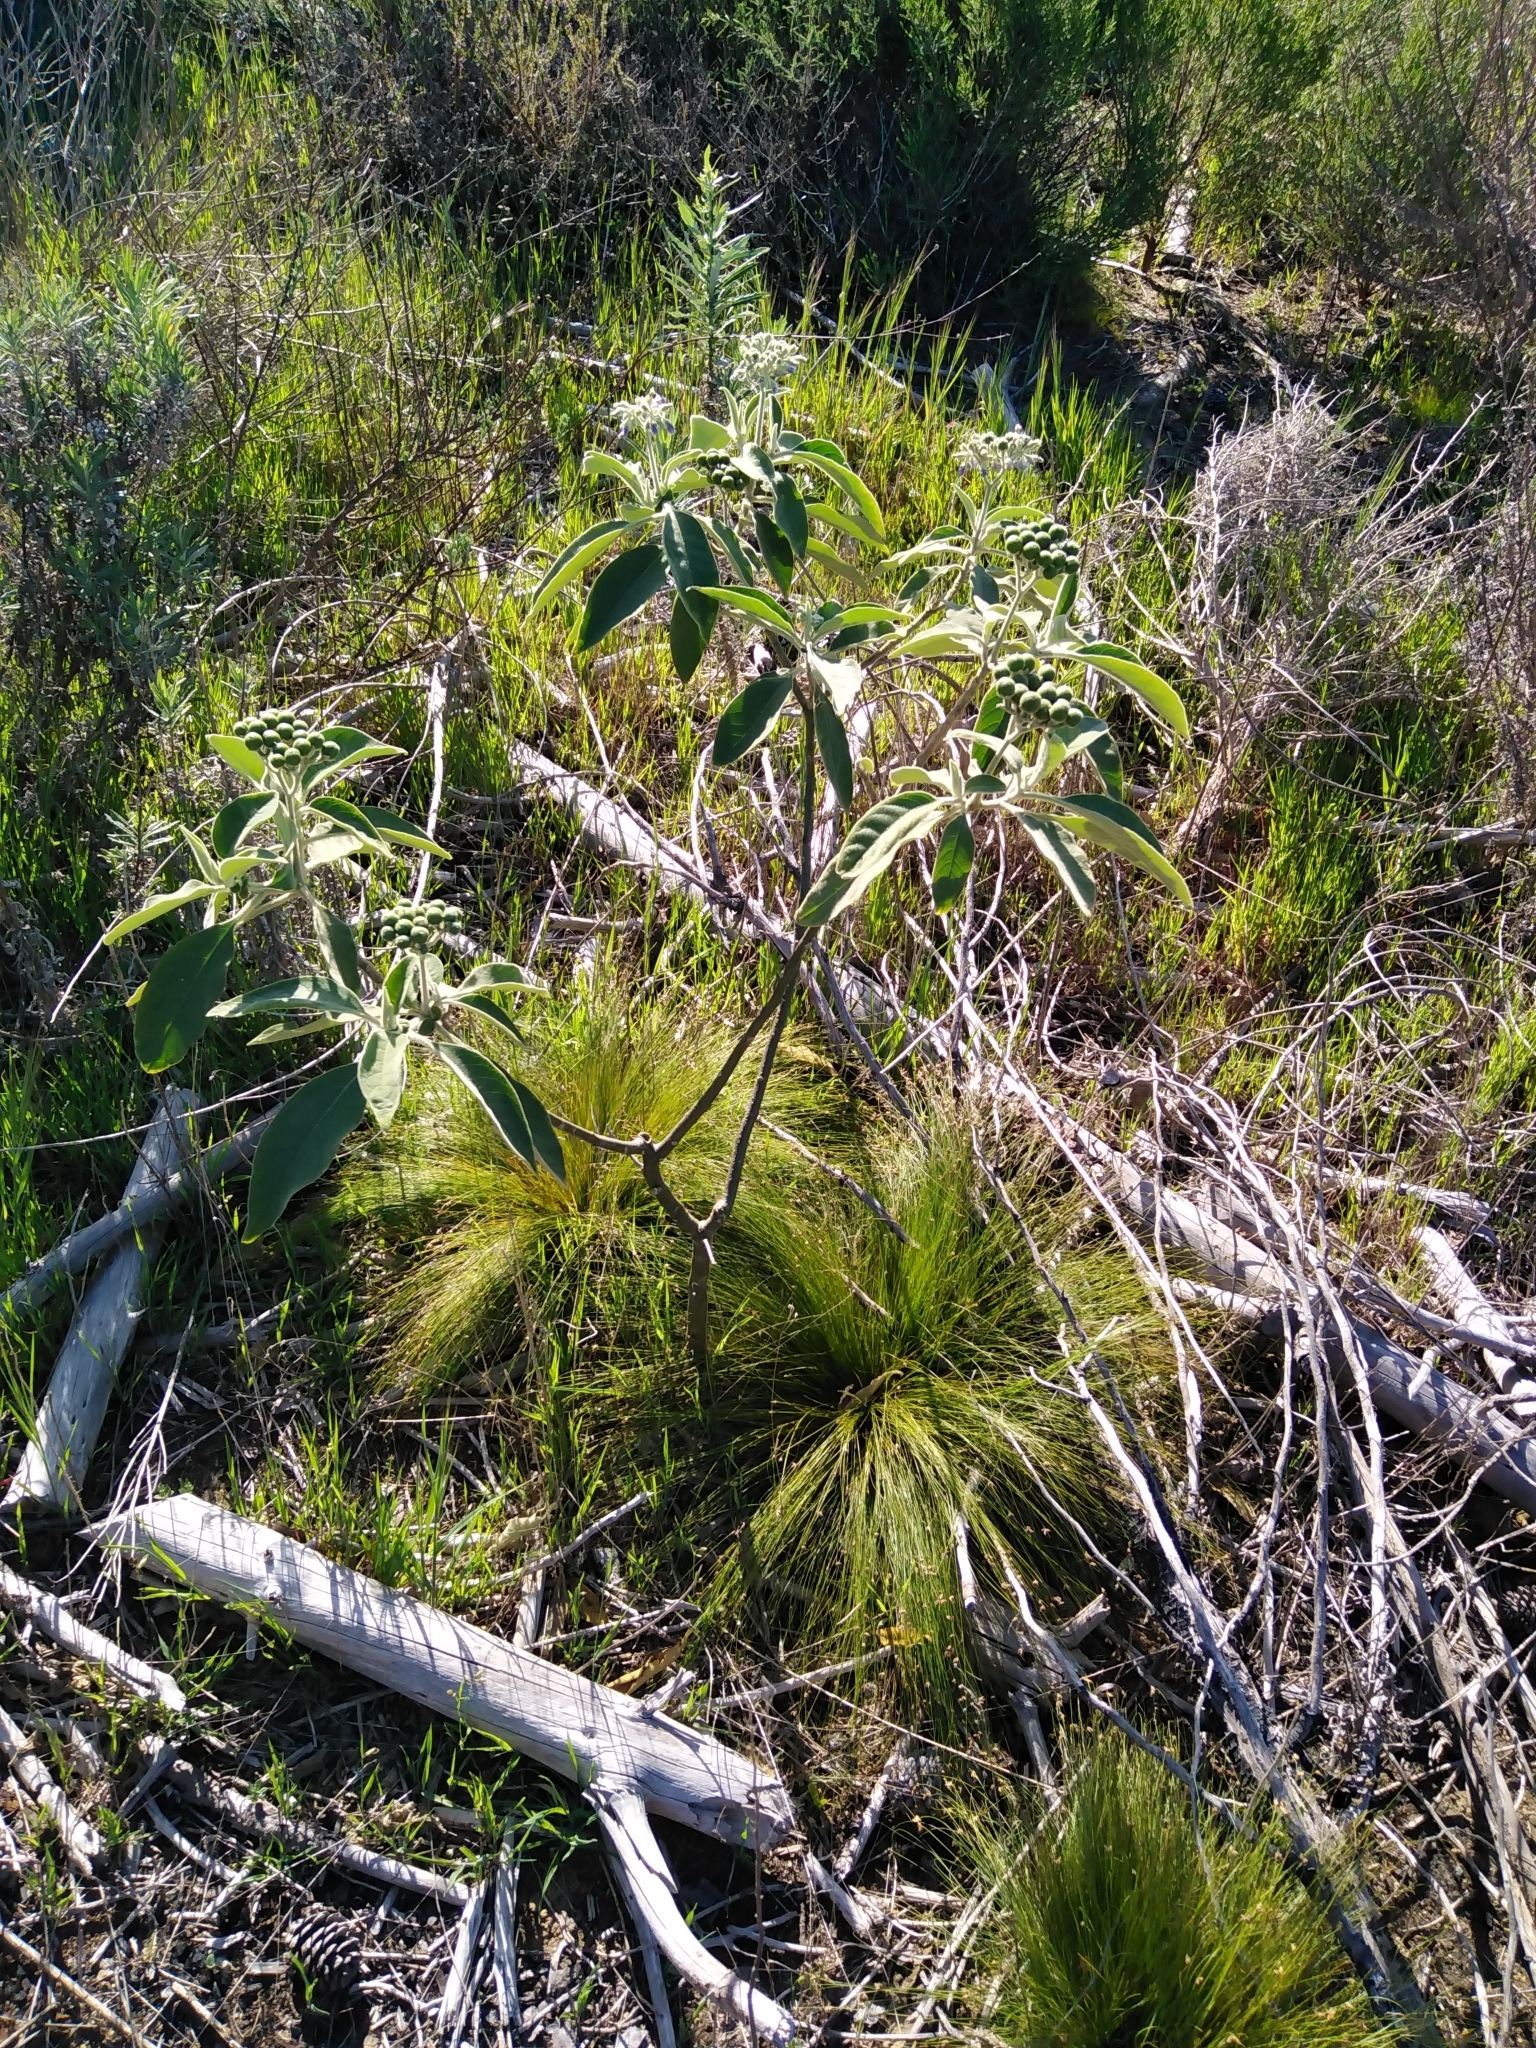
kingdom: Plantae
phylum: Tracheophyta
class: Magnoliopsida
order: Solanales
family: Solanaceae
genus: Solanum
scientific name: Solanum mauritianum
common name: Earleaf nightshade
